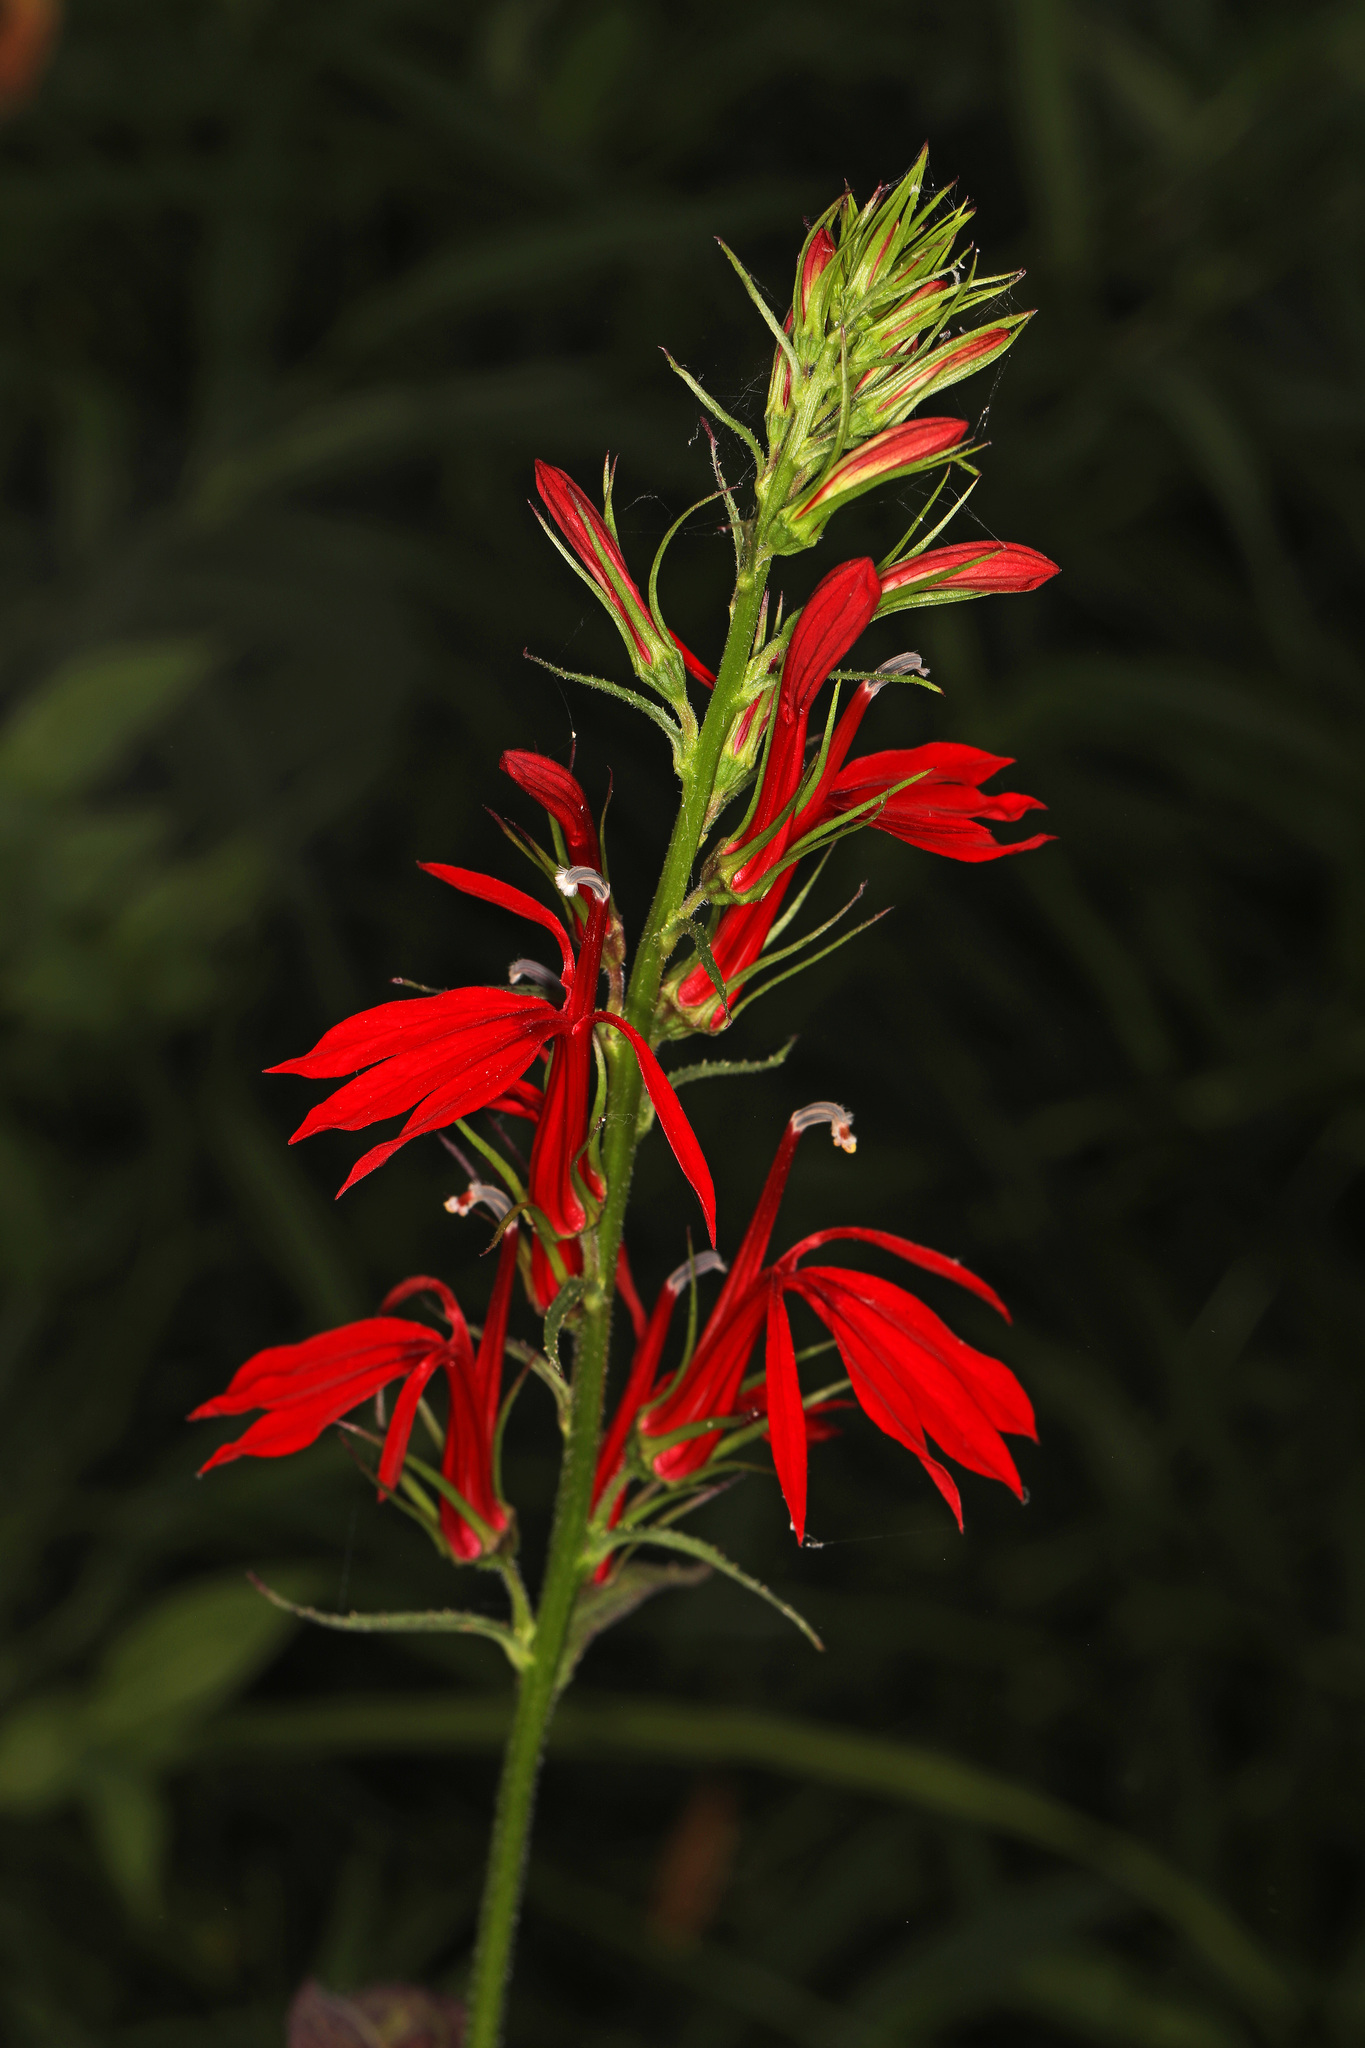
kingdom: Plantae
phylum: Tracheophyta
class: Magnoliopsida
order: Asterales
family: Campanulaceae
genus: Lobelia
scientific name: Lobelia cardinalis
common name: Cardinal flower
